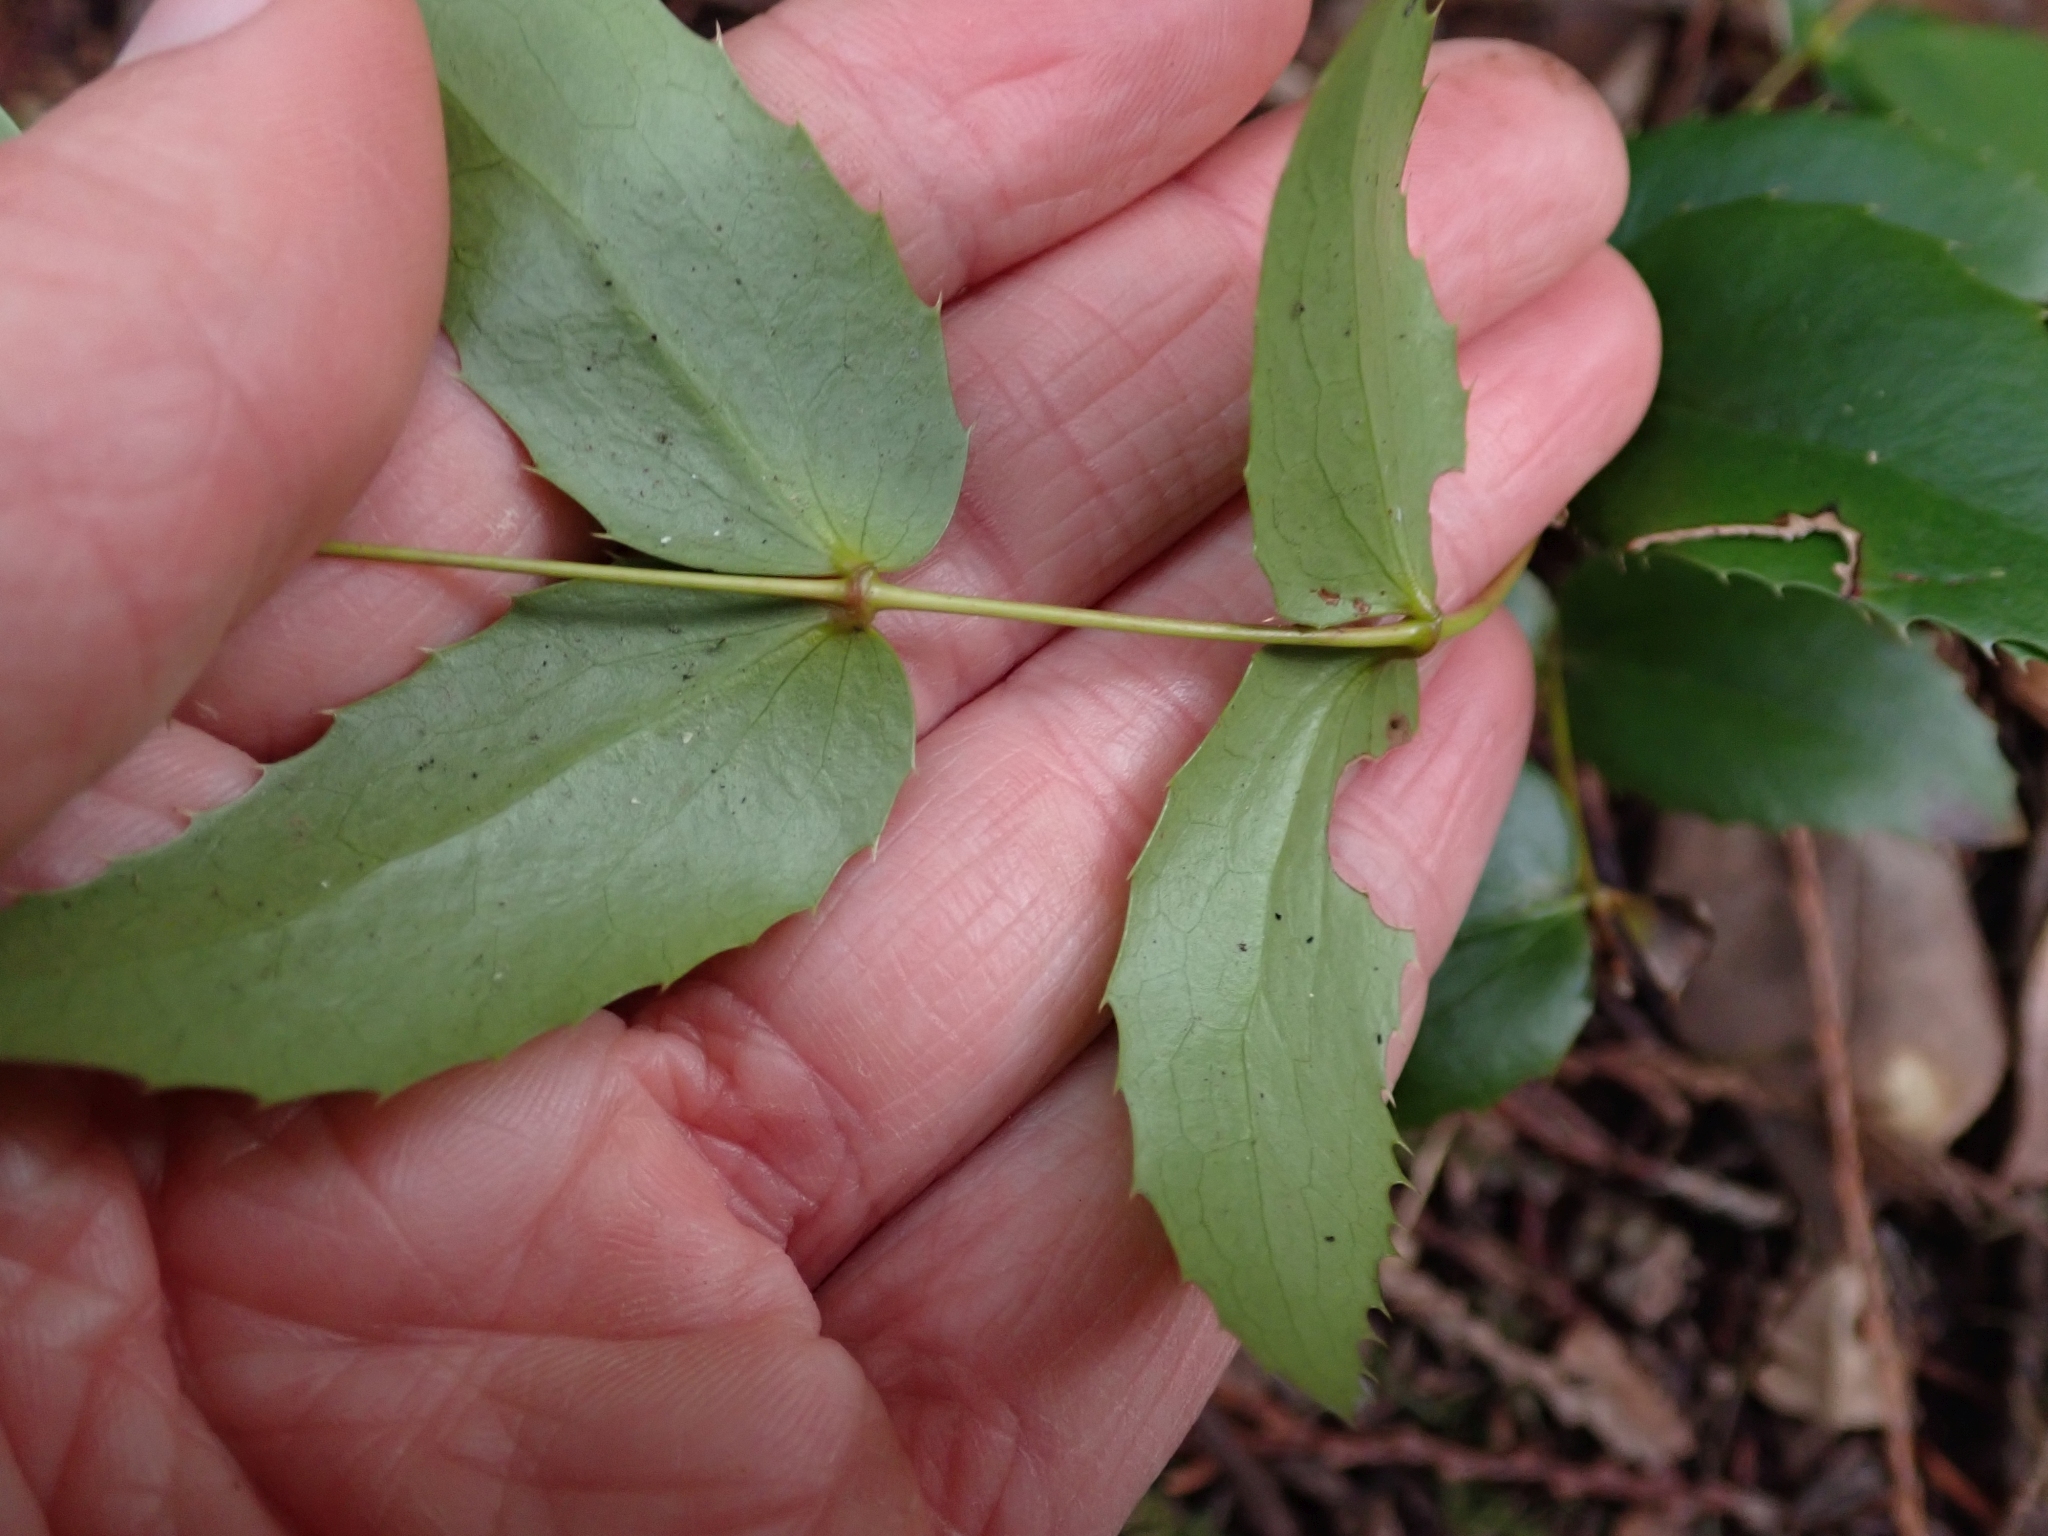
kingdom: Plantae
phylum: Tracheophyta
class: Magnoliopsida
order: Ranunculales
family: Berberidaceae
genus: Mahonia
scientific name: Mahonia nervosa
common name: Cascade oregon-grape
